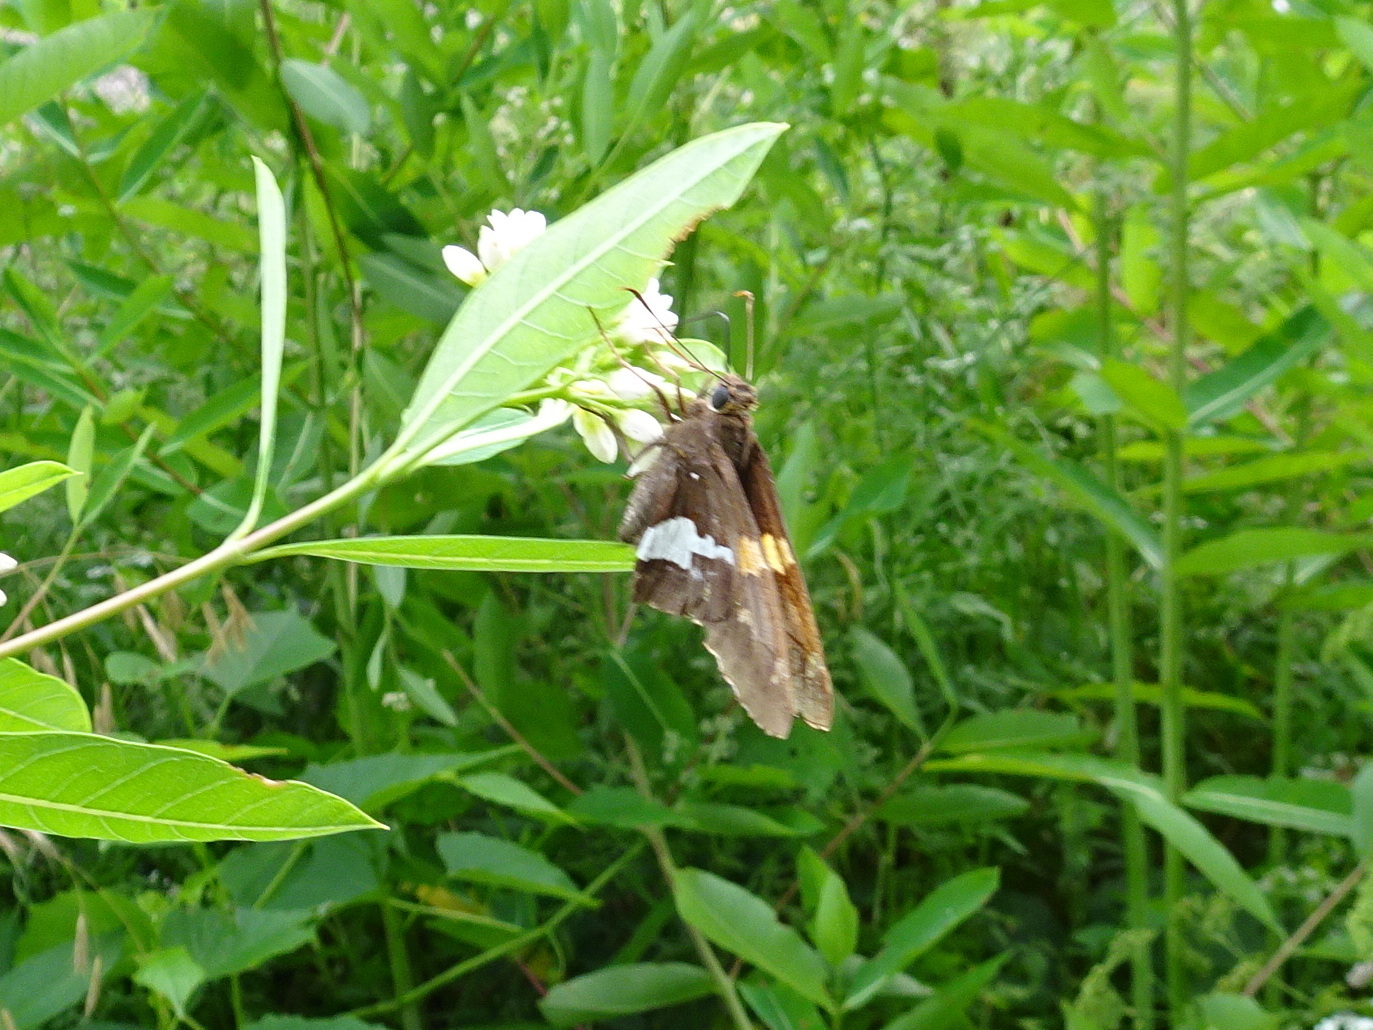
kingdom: Animalia
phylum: Arthropoda
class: Insecta
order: Lepidoptera
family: Hesperiidae
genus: Epargyreus
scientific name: Epargyreus clarus
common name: Silver-spotted skipper
